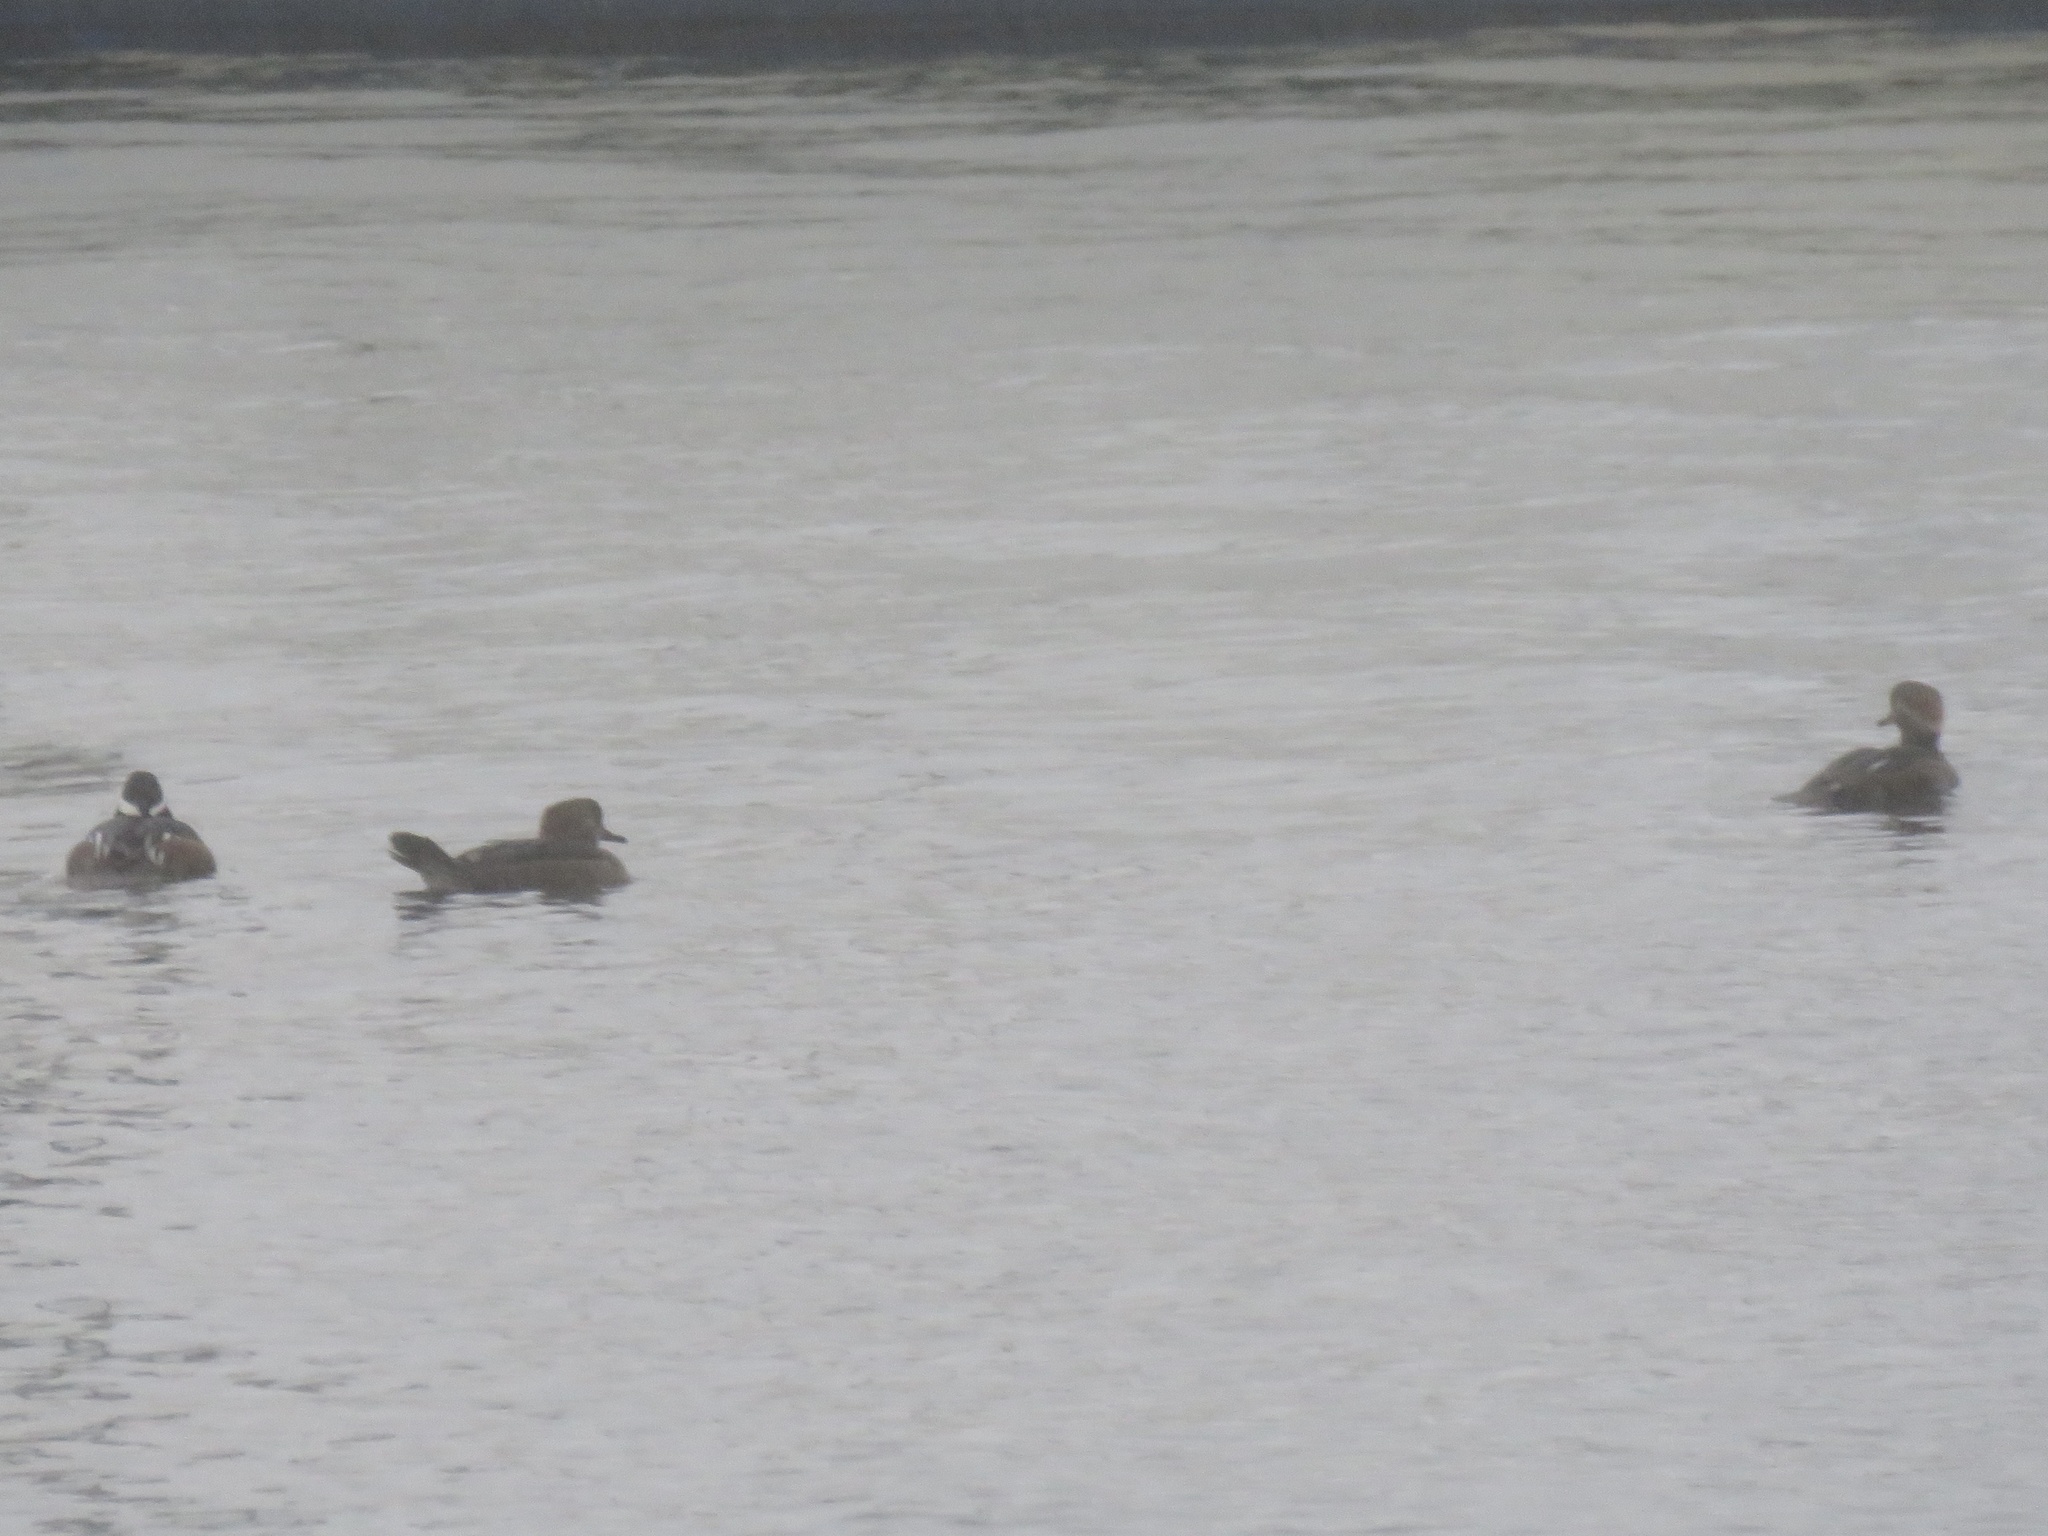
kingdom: Animalia
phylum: Chordata
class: Aves
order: Anseriformes
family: Anatidae
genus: Lophodytes
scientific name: Lophodytes cucullatus
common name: Hooded merganser
